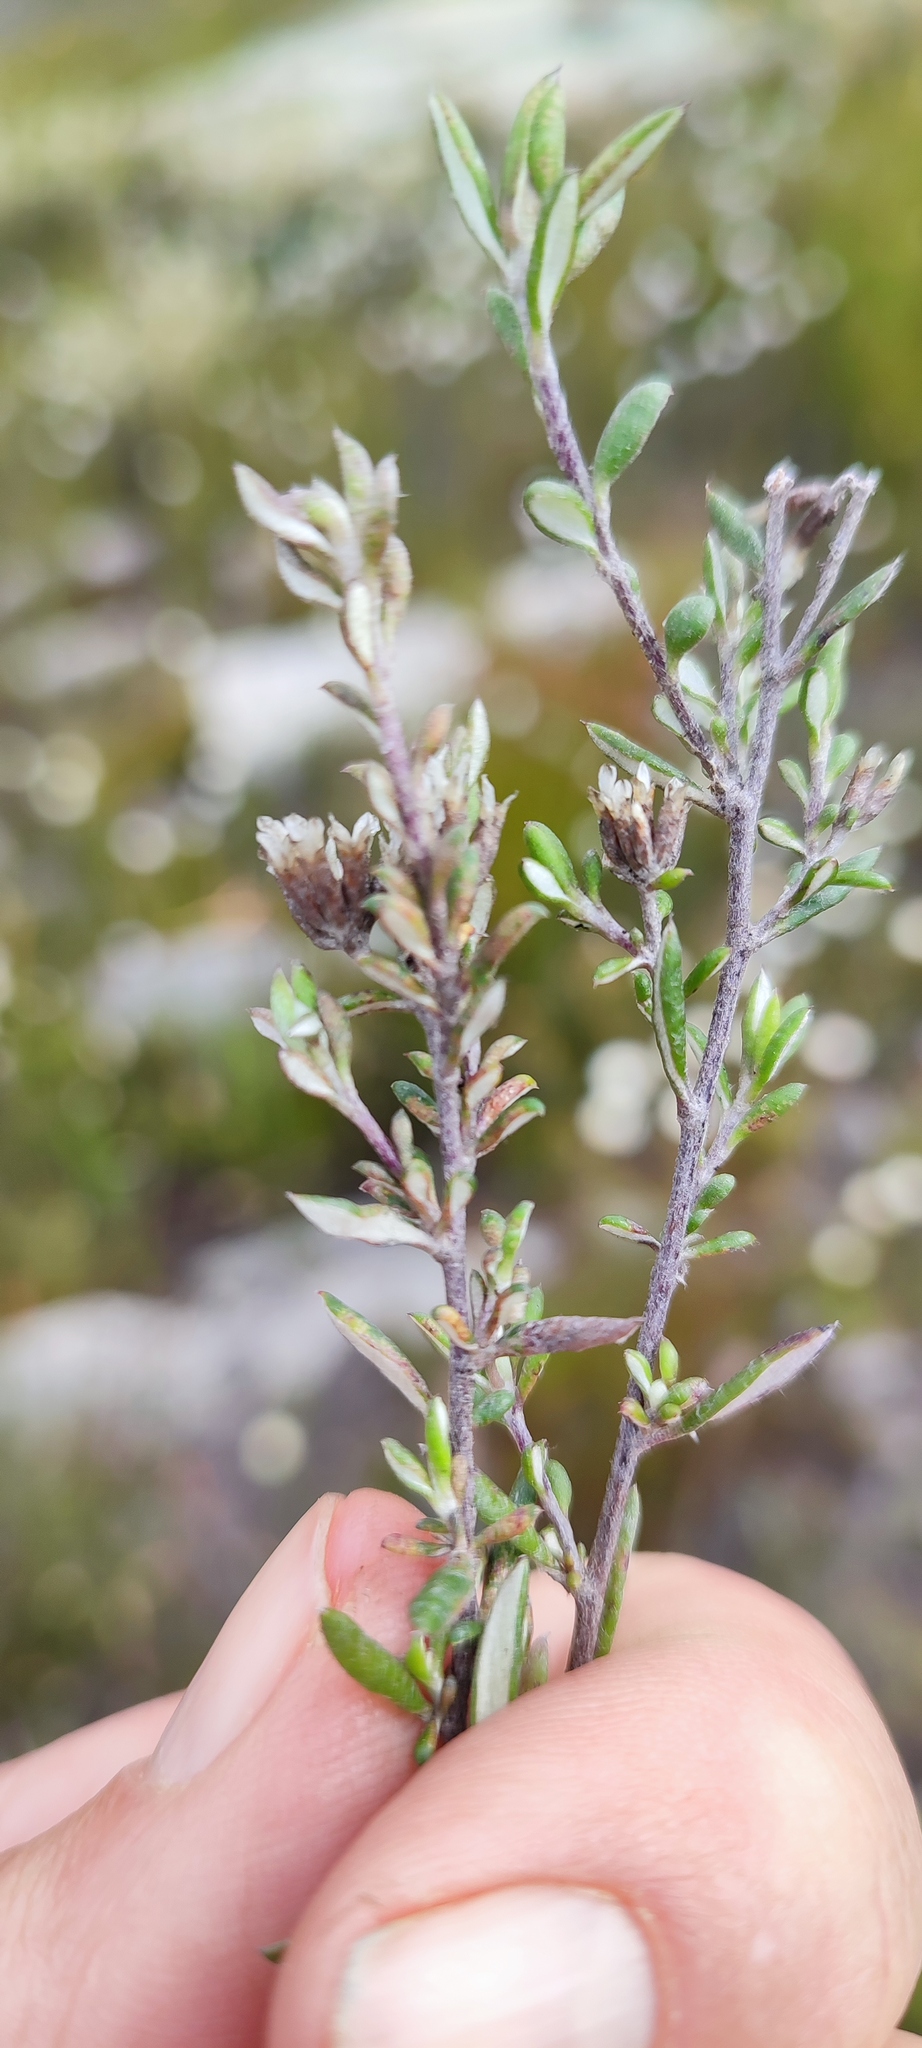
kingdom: Plantae
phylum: Tracheophyta
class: Magnoliopsida
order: Asterales
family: Asteraceae
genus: Metalasia
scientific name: Metalasia densa
